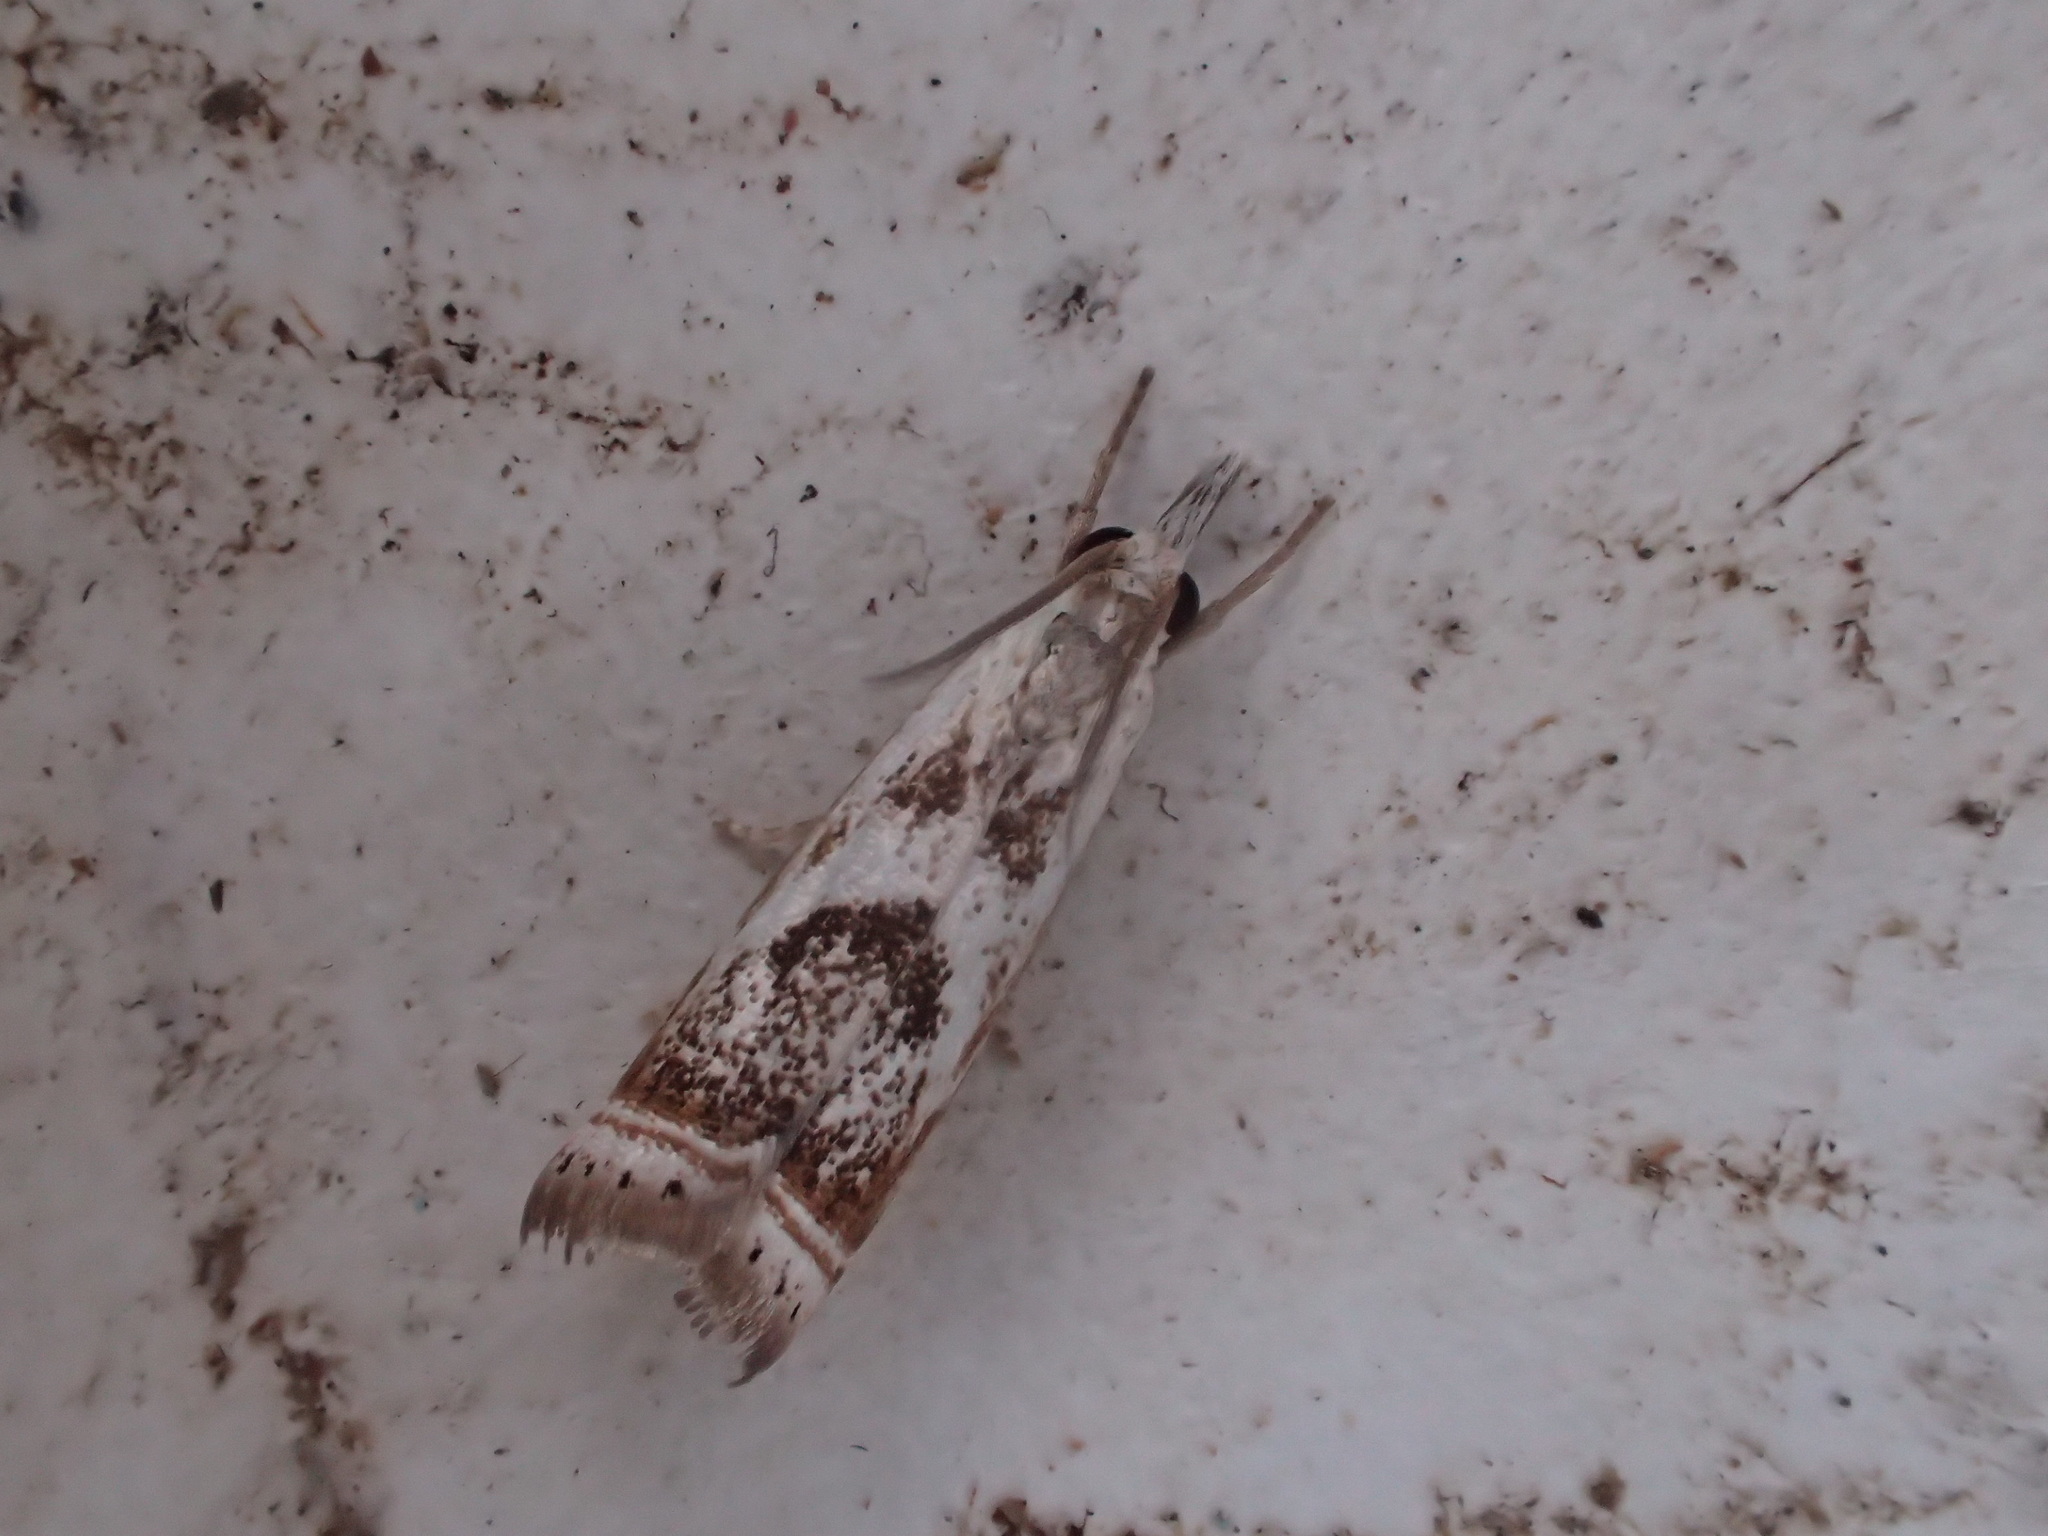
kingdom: Animalia
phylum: Arthropoda
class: Insecta
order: Lepidoptera
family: Crambidae
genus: Microcrambus
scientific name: Microcrambus elegans
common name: Elegant grass-veneer
